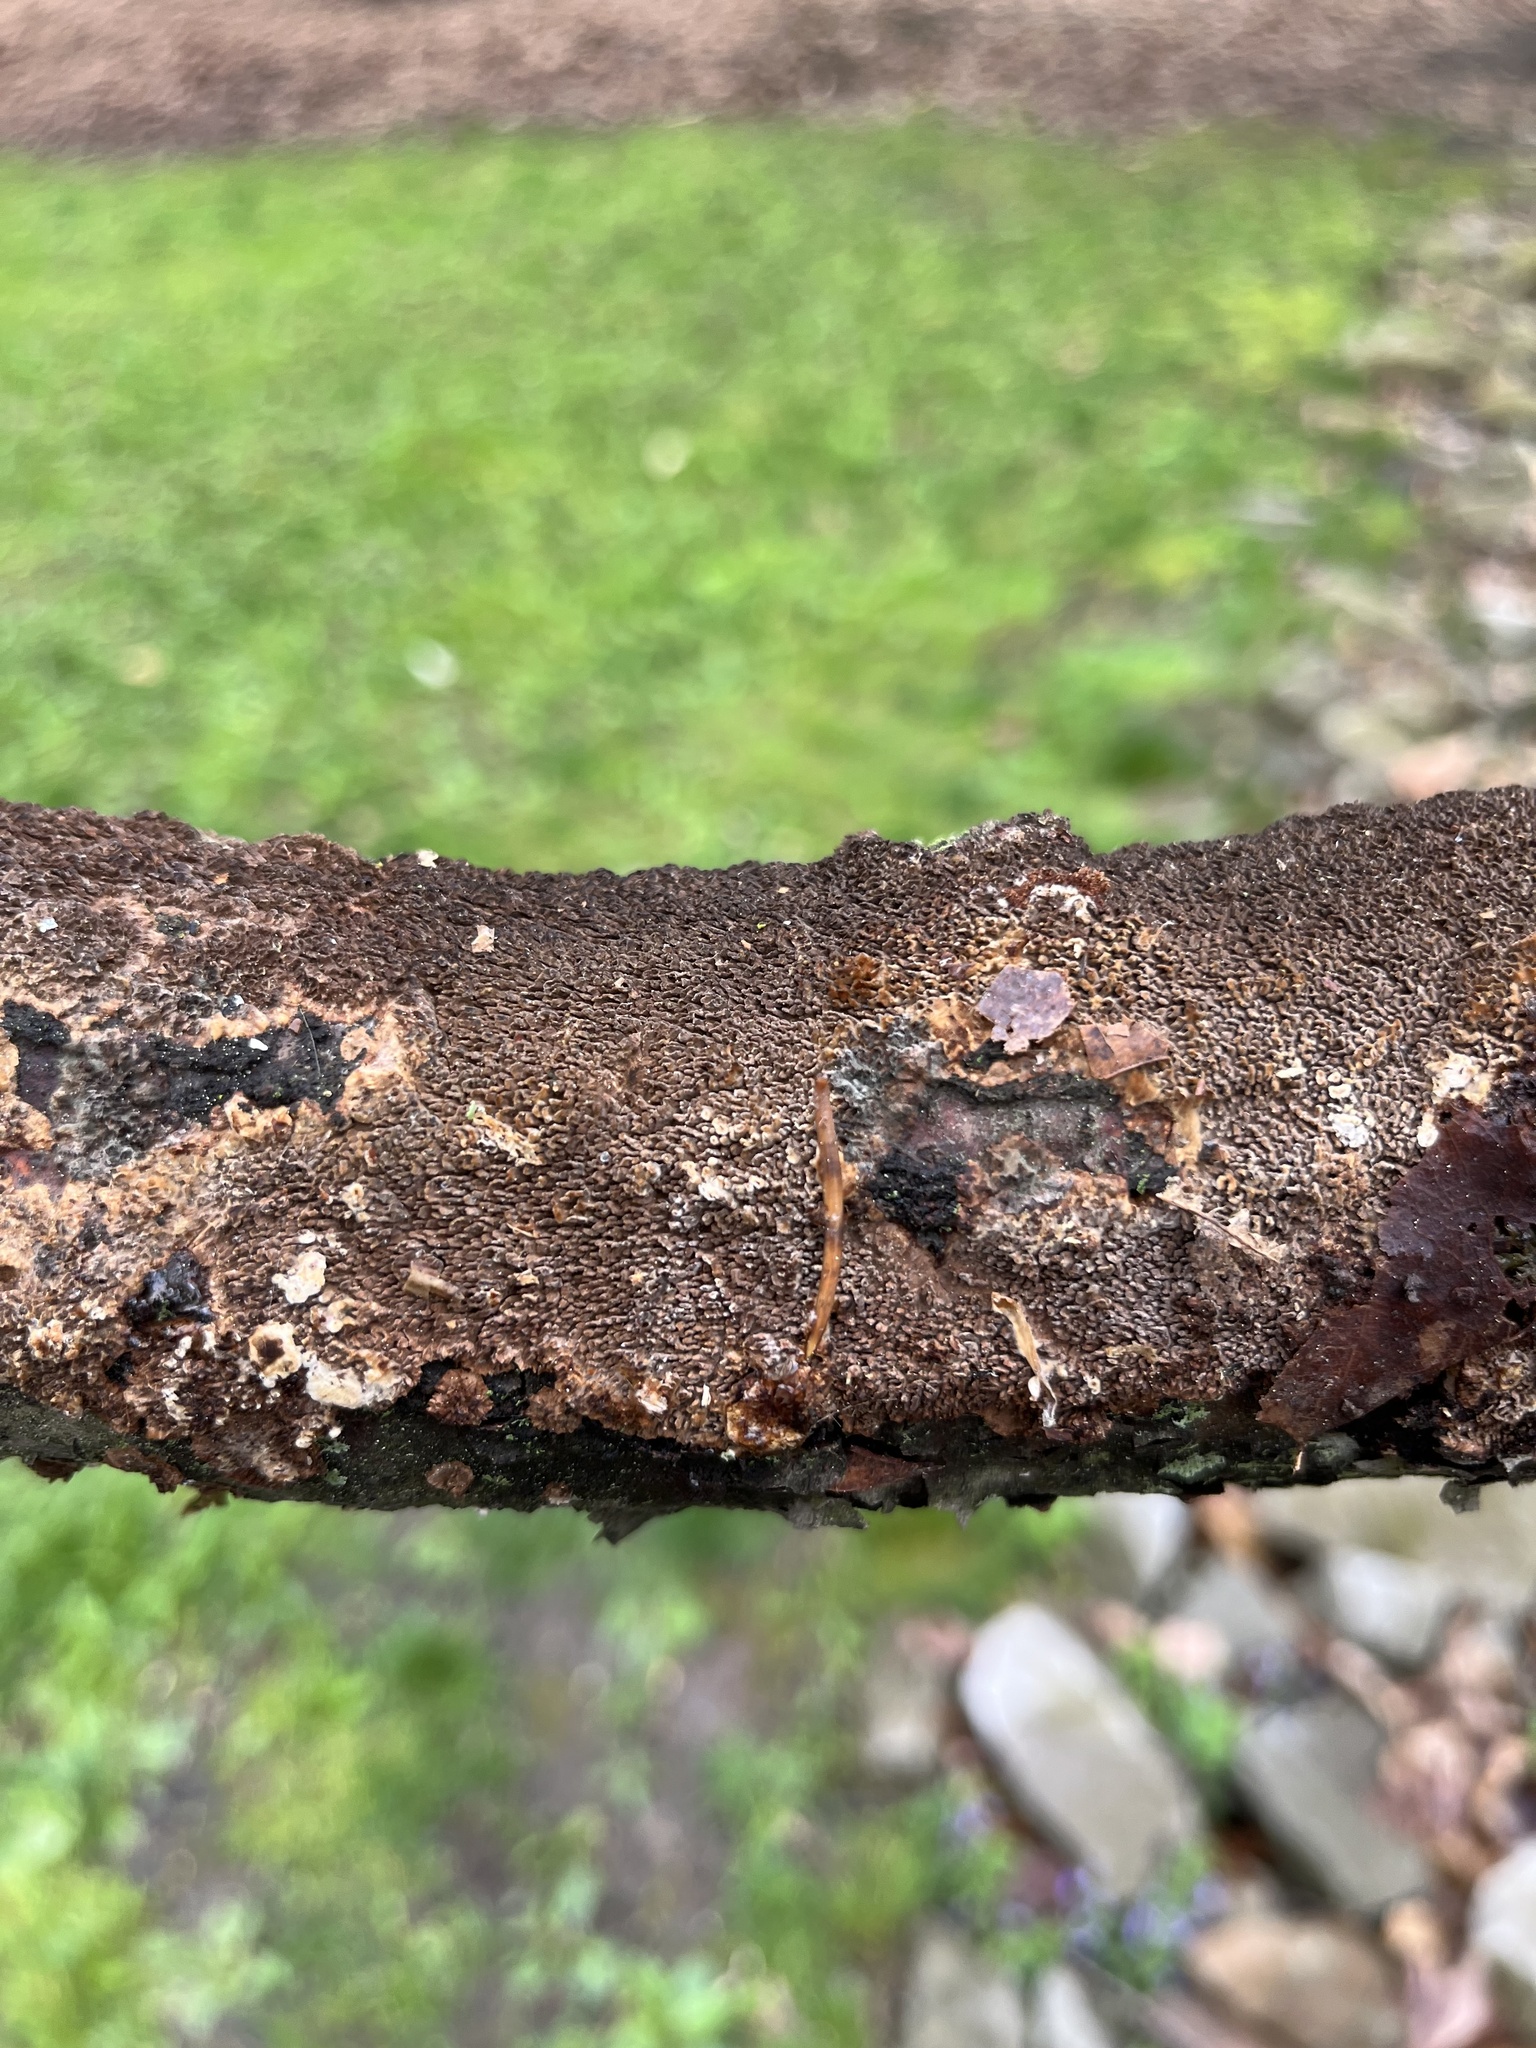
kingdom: Fungi
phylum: Basidiomycota
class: Agaricomycetes
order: Hymenochaetales
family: Hymenochaetaceae
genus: Hydnoporia
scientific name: Hydnoporia olivacea
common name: Brown-toothed crust fungus
